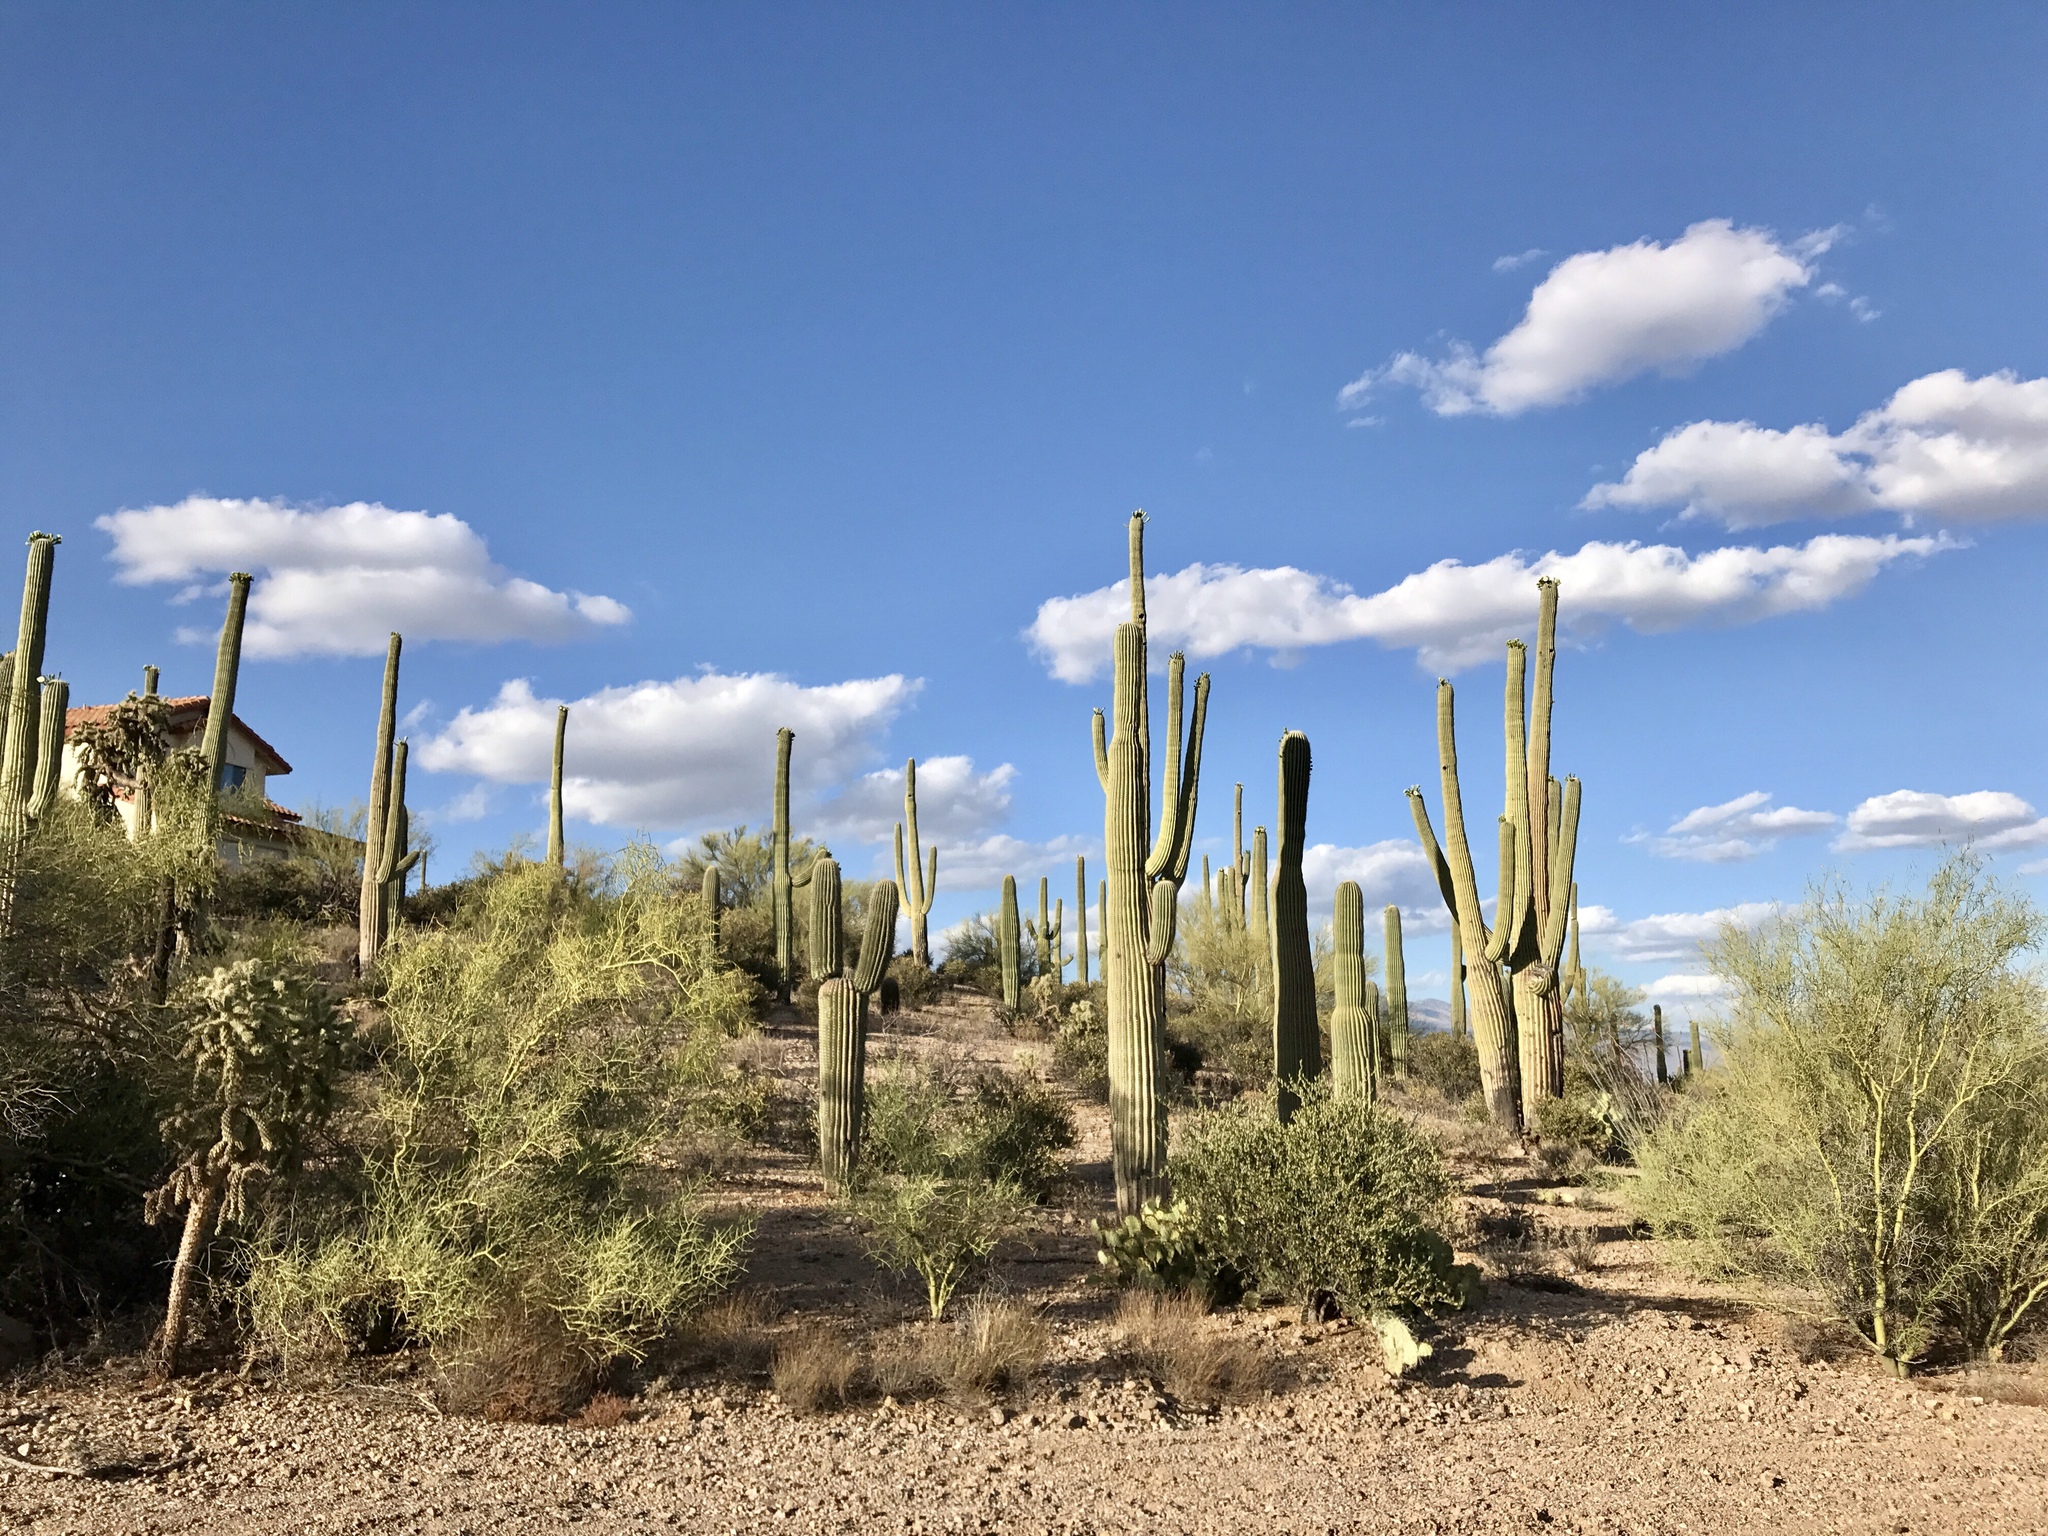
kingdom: Plantae
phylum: Tracheophyta
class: Magnoliopsida
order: Caryophyllales
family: Cactaceae
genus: Carnegiea
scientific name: Carnegiea gigantea
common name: Saguaro
